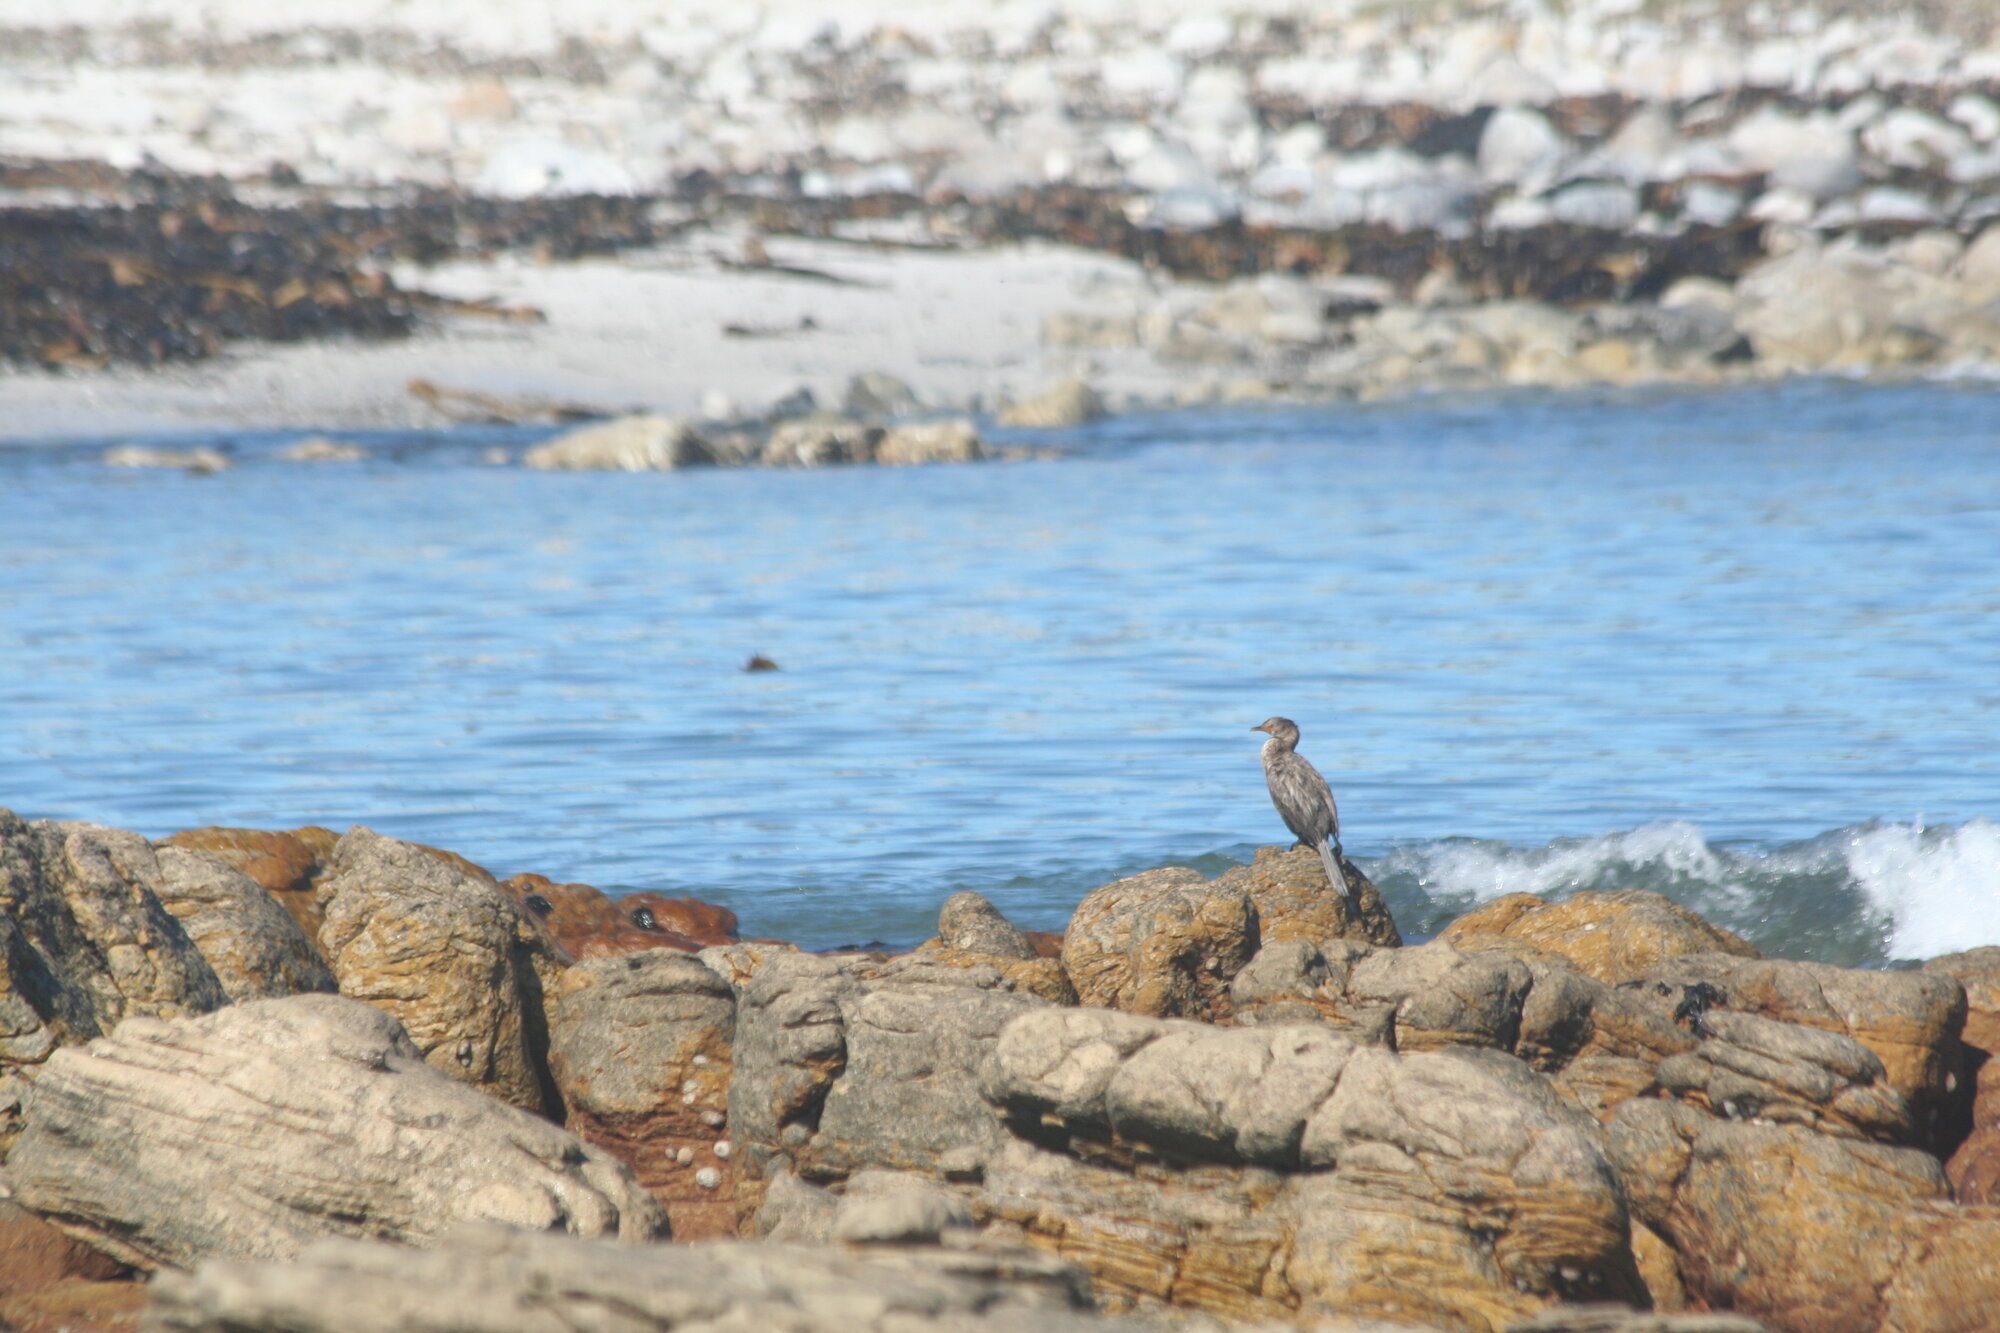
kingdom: Animalia
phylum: Chordata
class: Aves
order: Suliformes
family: Phalacrocoracidae
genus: Microcarbo
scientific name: Microcarbo coronatus
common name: Crowned cormorant
